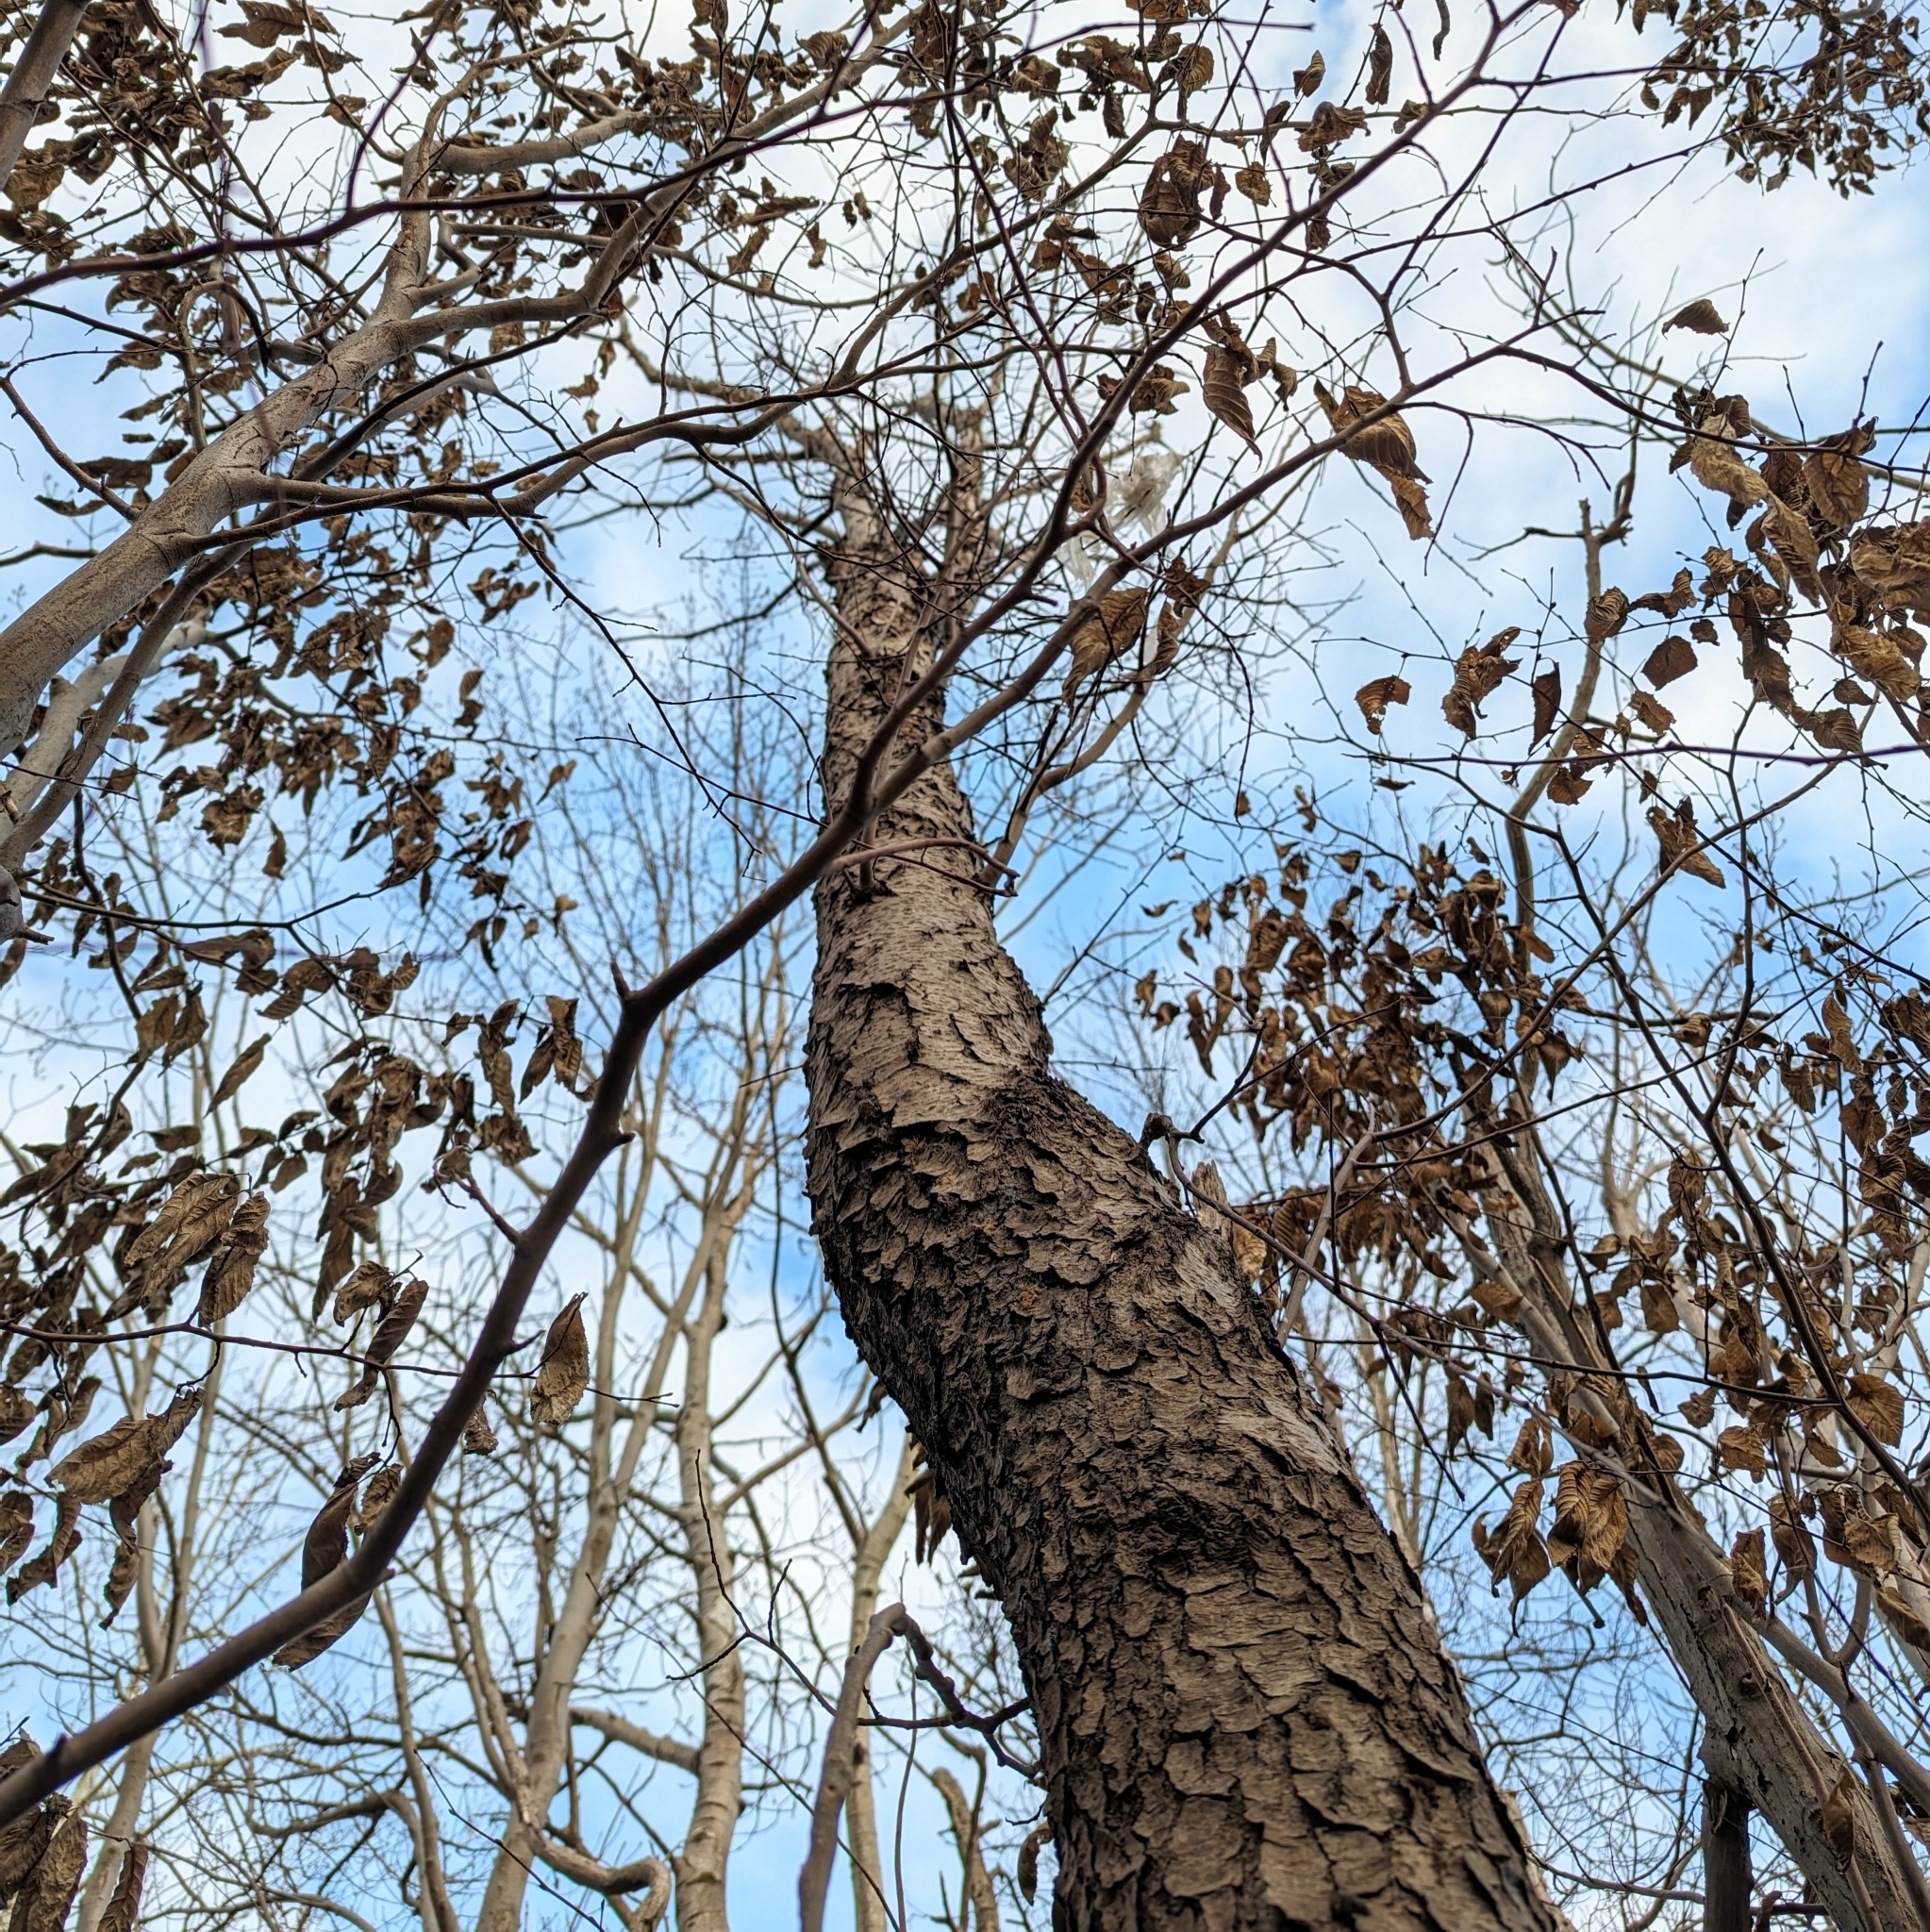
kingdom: Plantae
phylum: Tracheophyta
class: Magnoliopsida
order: Rosales
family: Rosaceae
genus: Prunus
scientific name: Prunus serotina
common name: Black cherry
